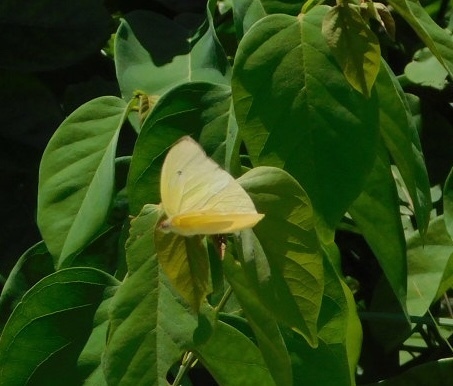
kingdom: Animalia
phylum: Arthropoda
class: Insecta
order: Lepidoptera
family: Pieridae
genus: Aphrissa
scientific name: Aphrissa statira
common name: Statira sulphur
